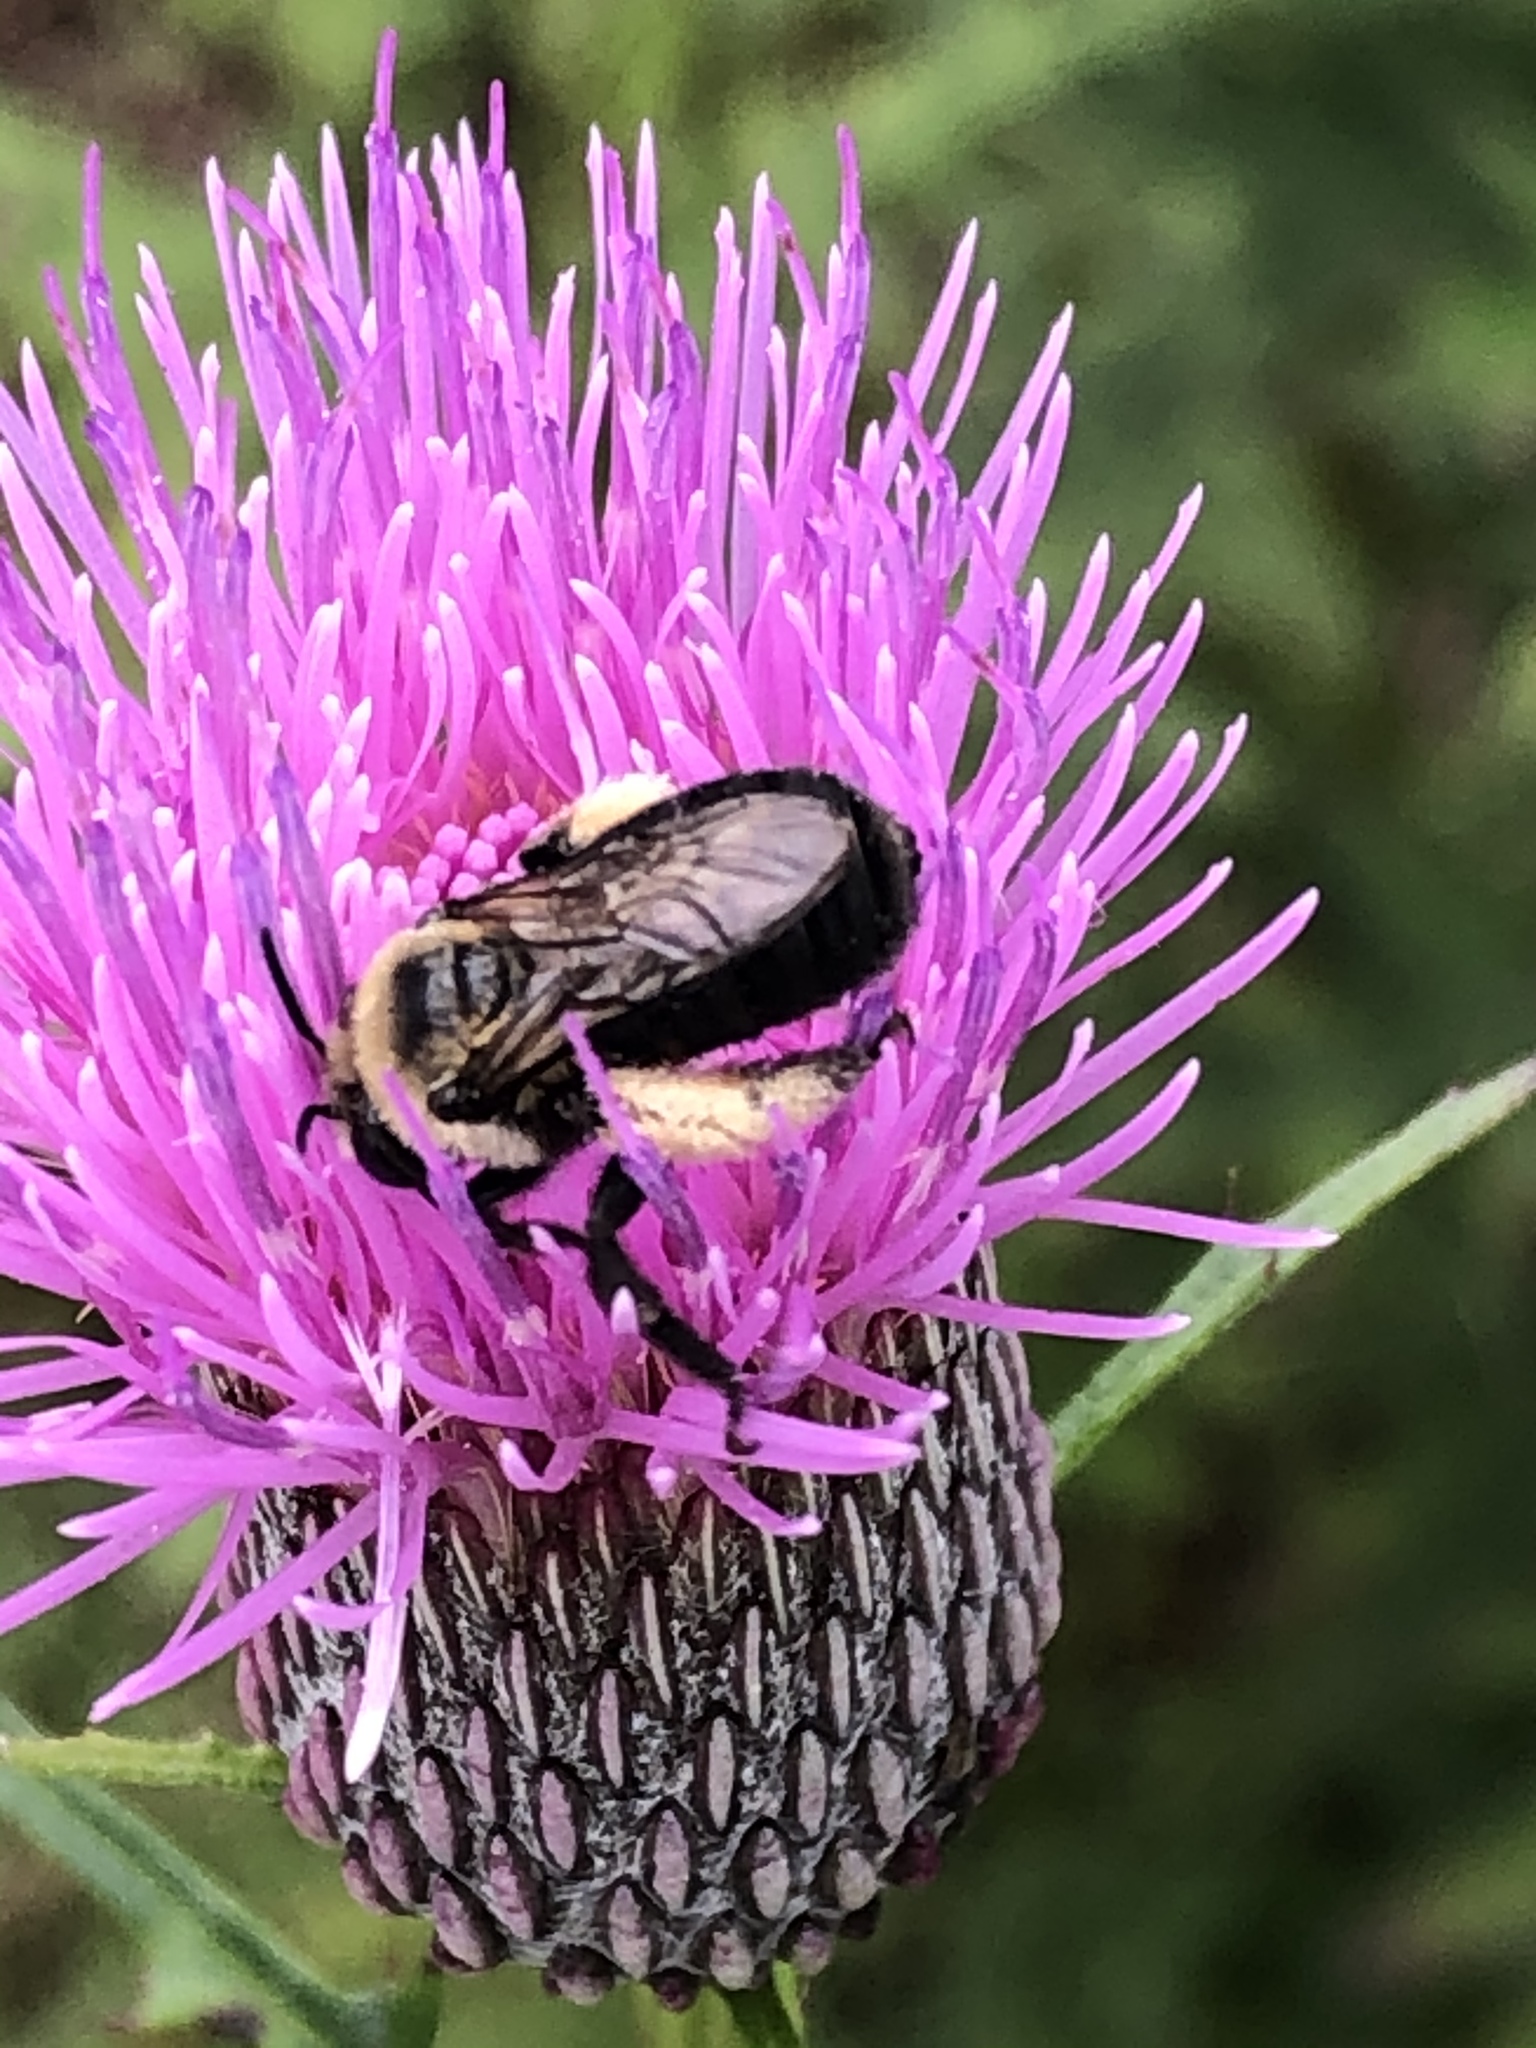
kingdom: Animalia
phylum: Arthropoda
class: Insecta
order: Hymenoptera
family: Apidae
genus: Melissodes
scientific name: Melissodes desponsus
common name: Thistle long-horned bee
